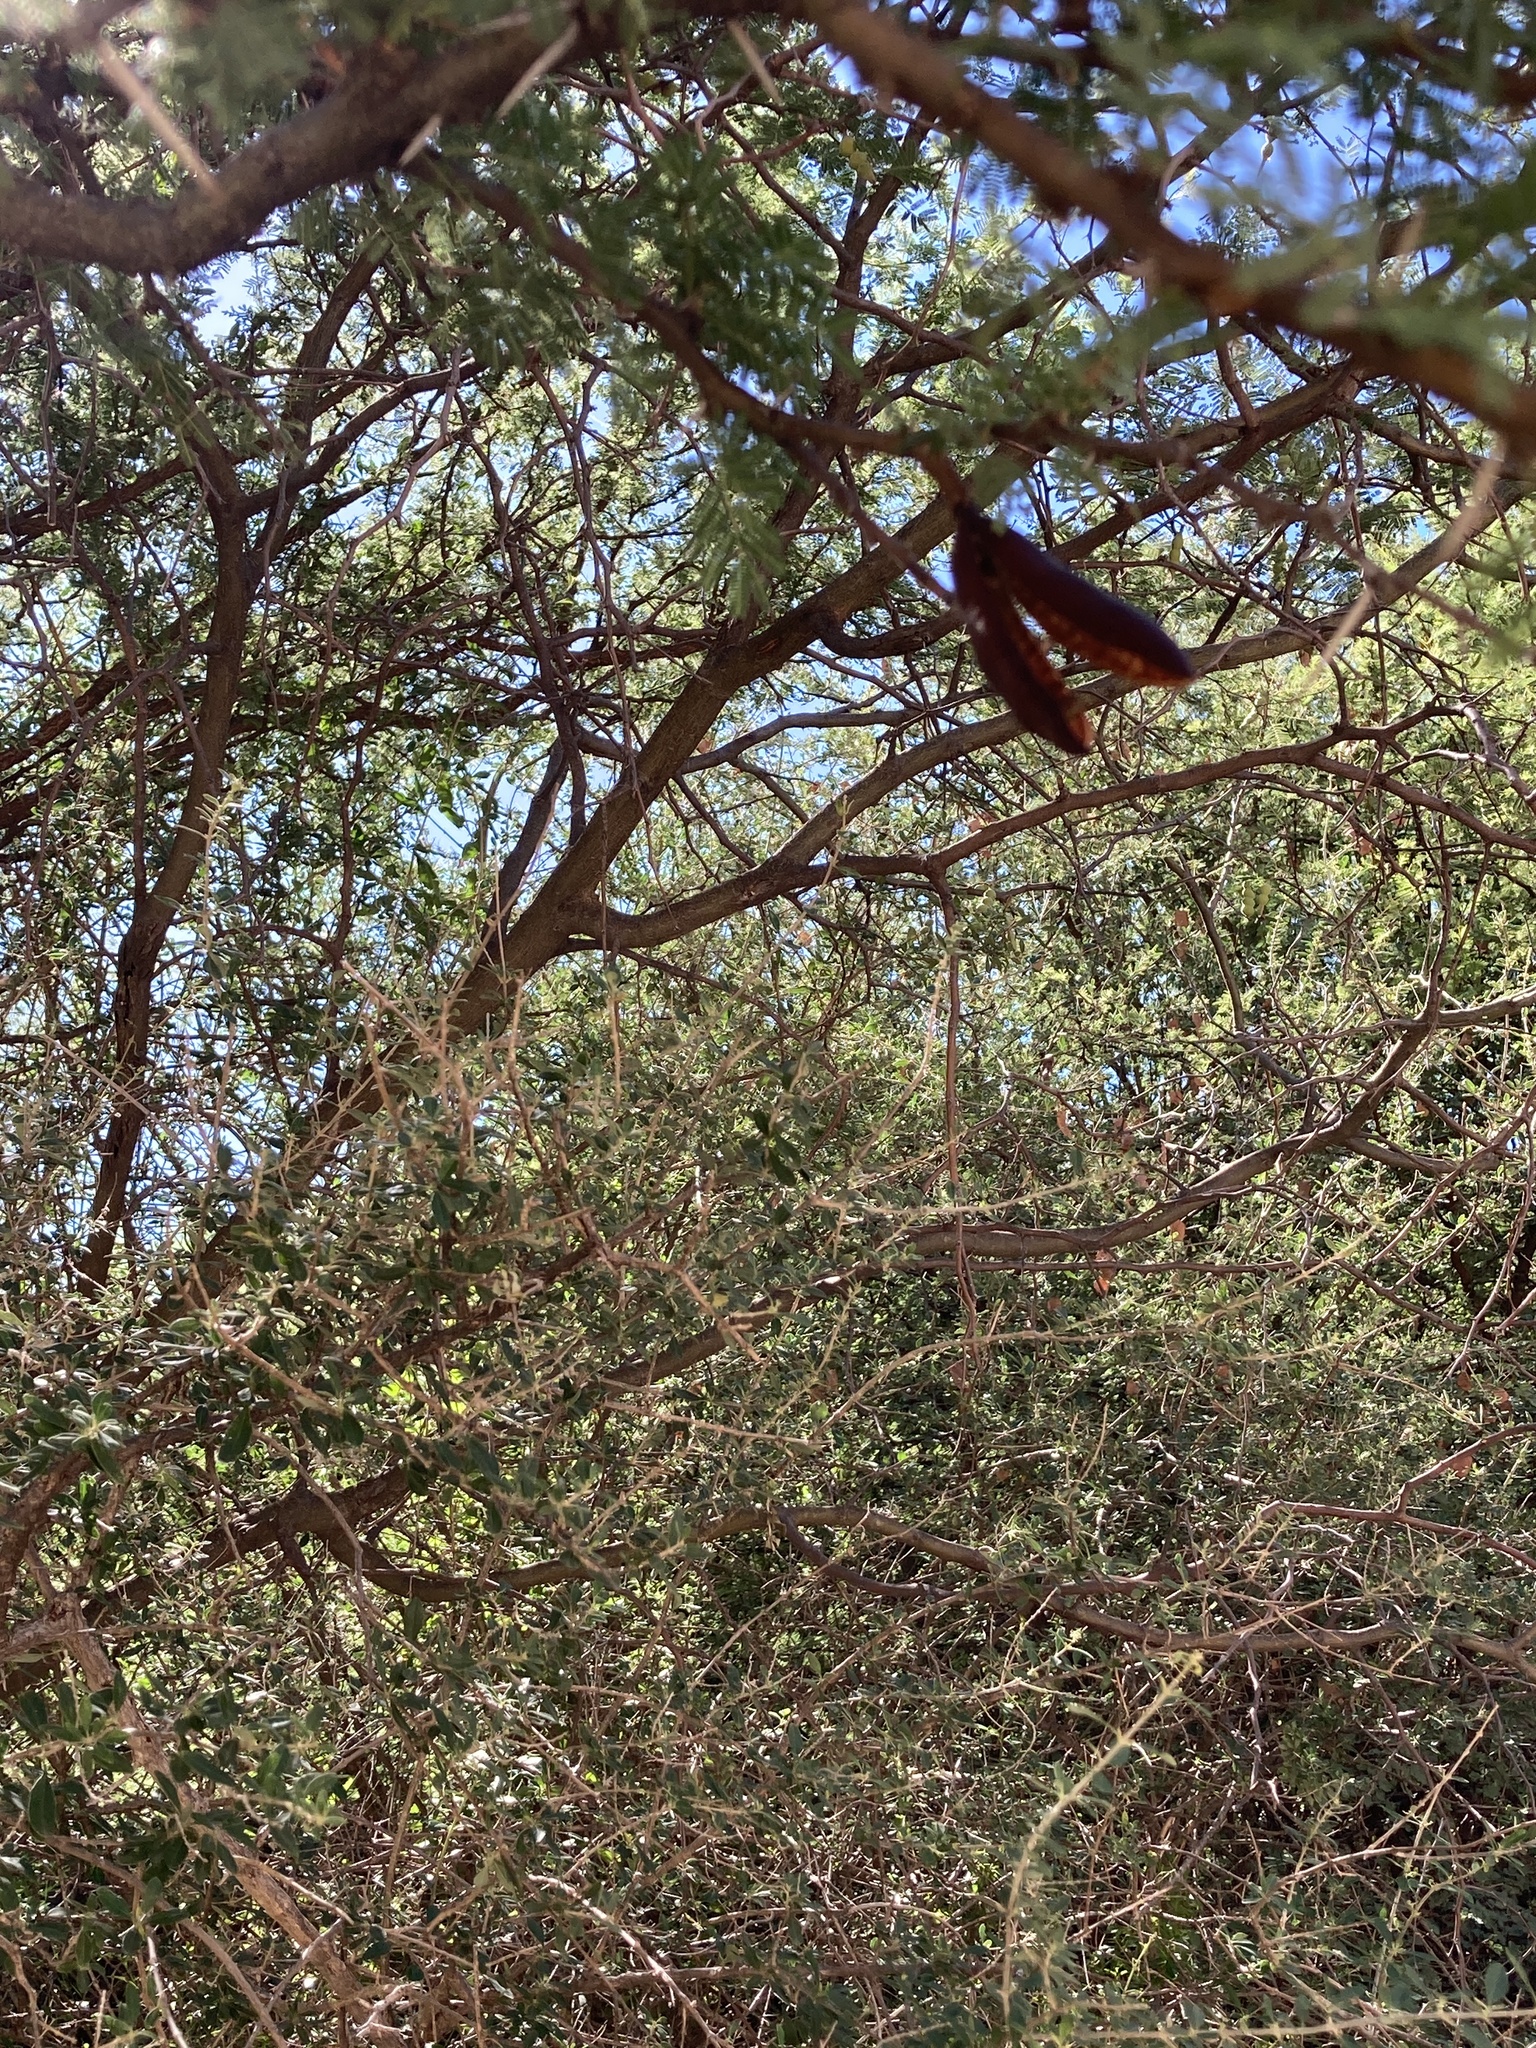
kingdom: Plantae
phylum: Tracheophyta
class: Magnoliopsida
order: Fabales
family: Fabaceae
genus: Vachellia
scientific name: Vachellia caven
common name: Roman cassie
